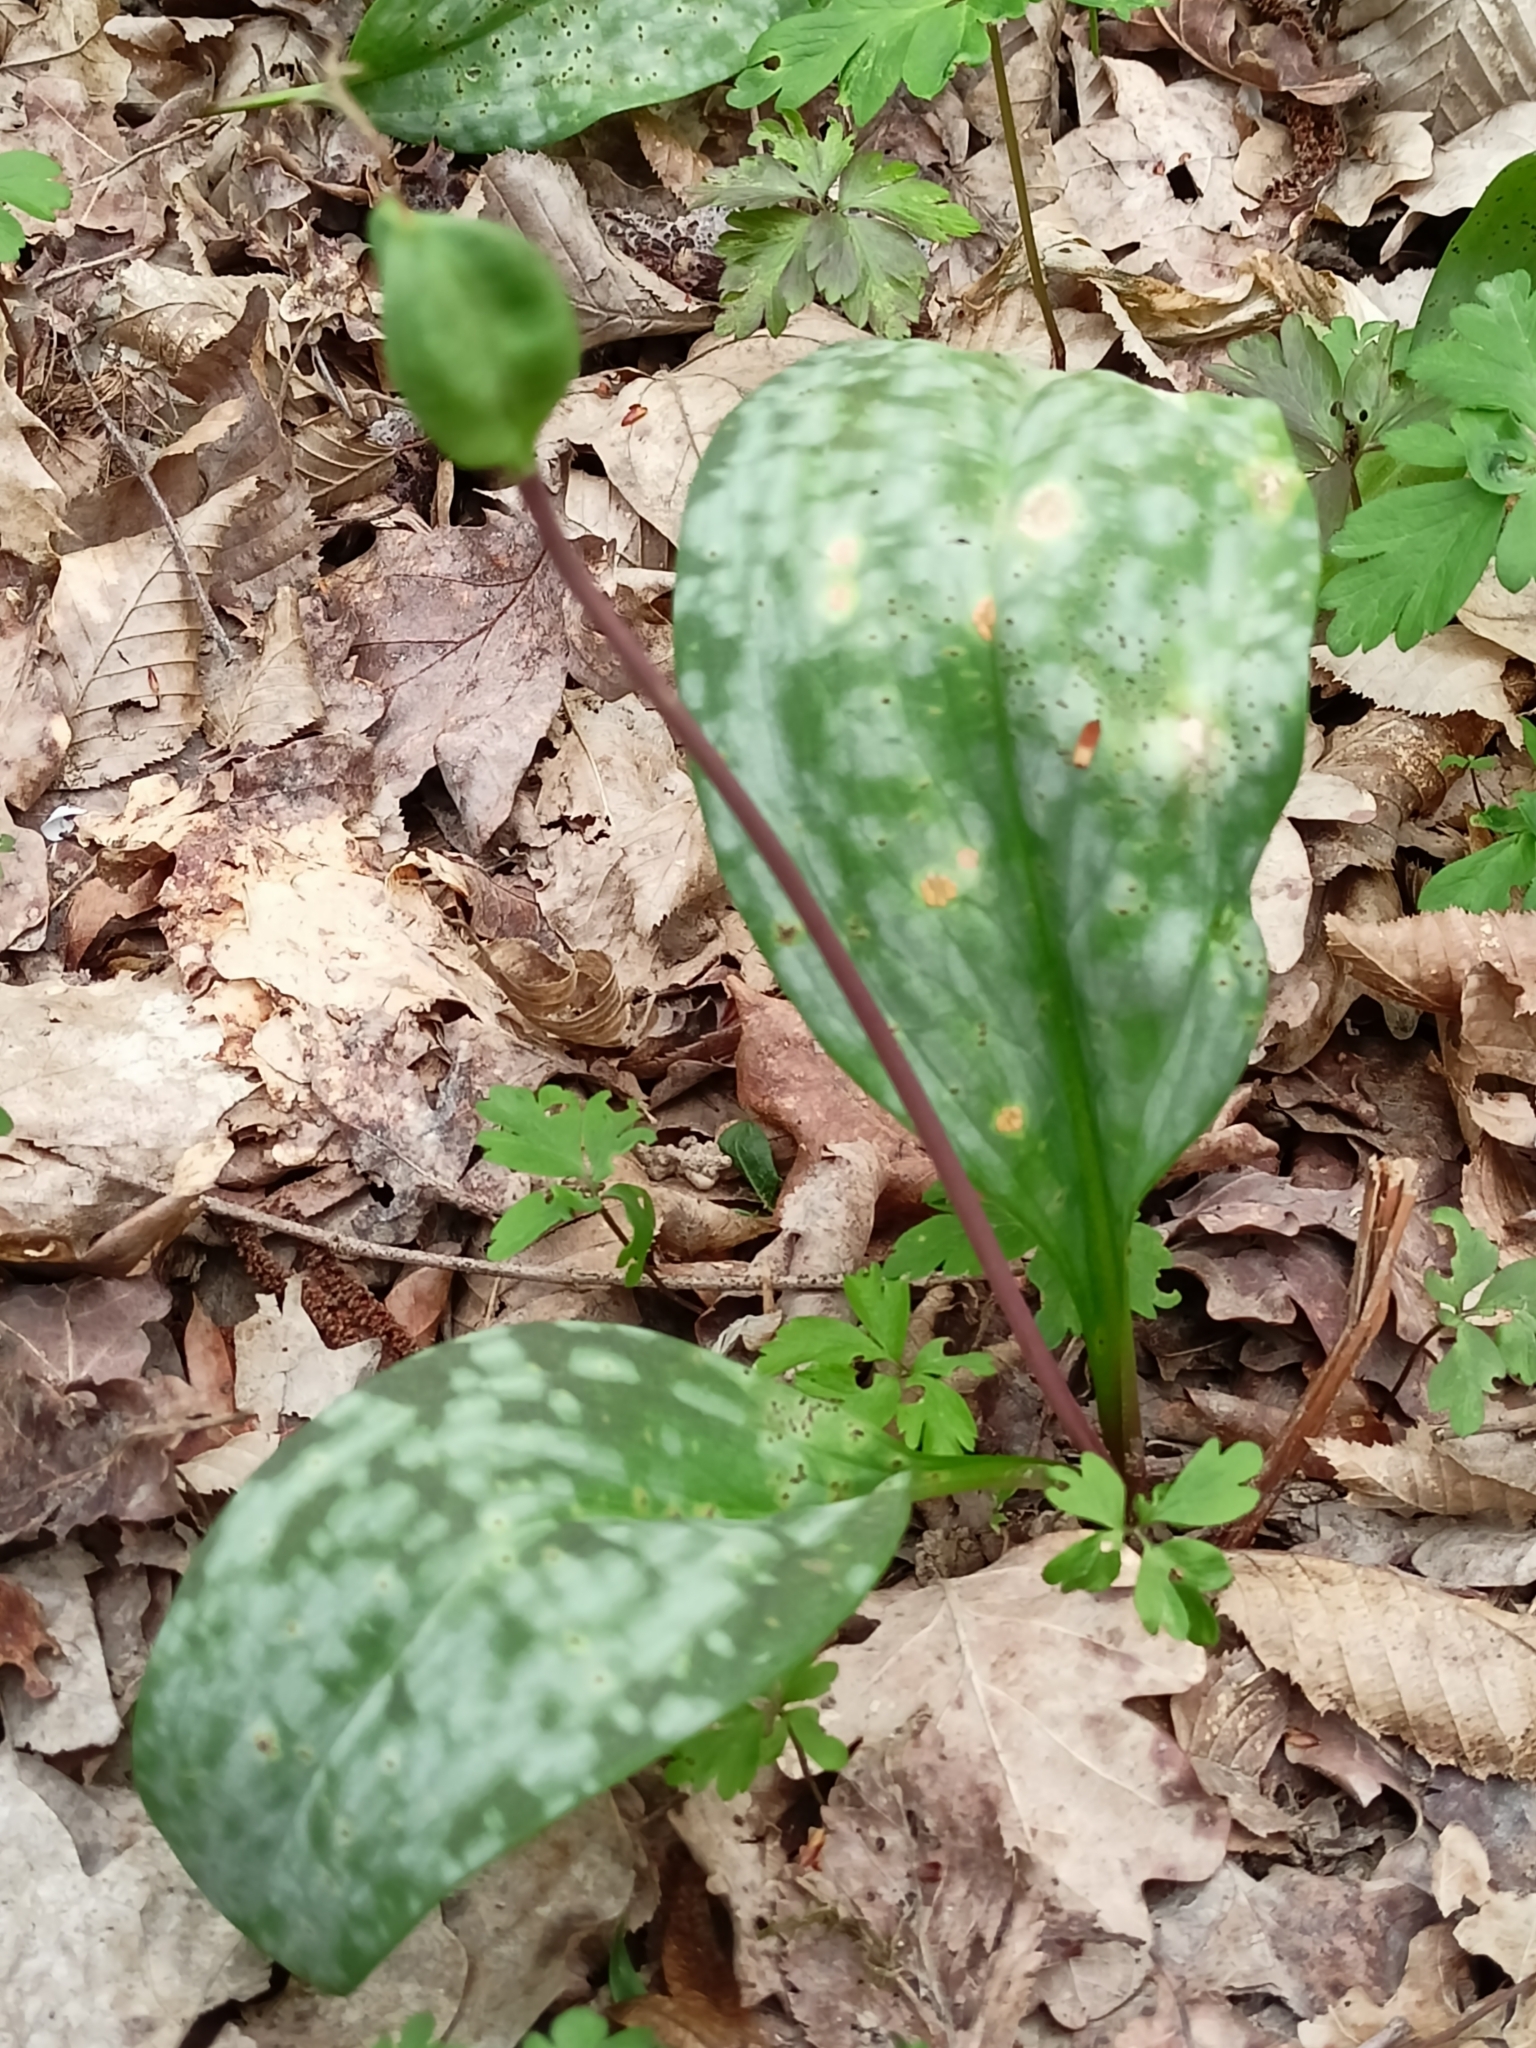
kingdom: Plantae
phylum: Tracheophyta
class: Liliopsida
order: Liliales
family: Liliaceae
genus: Erythronium
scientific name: Erythronium dens-canis
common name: Dog's-tooth-violet
